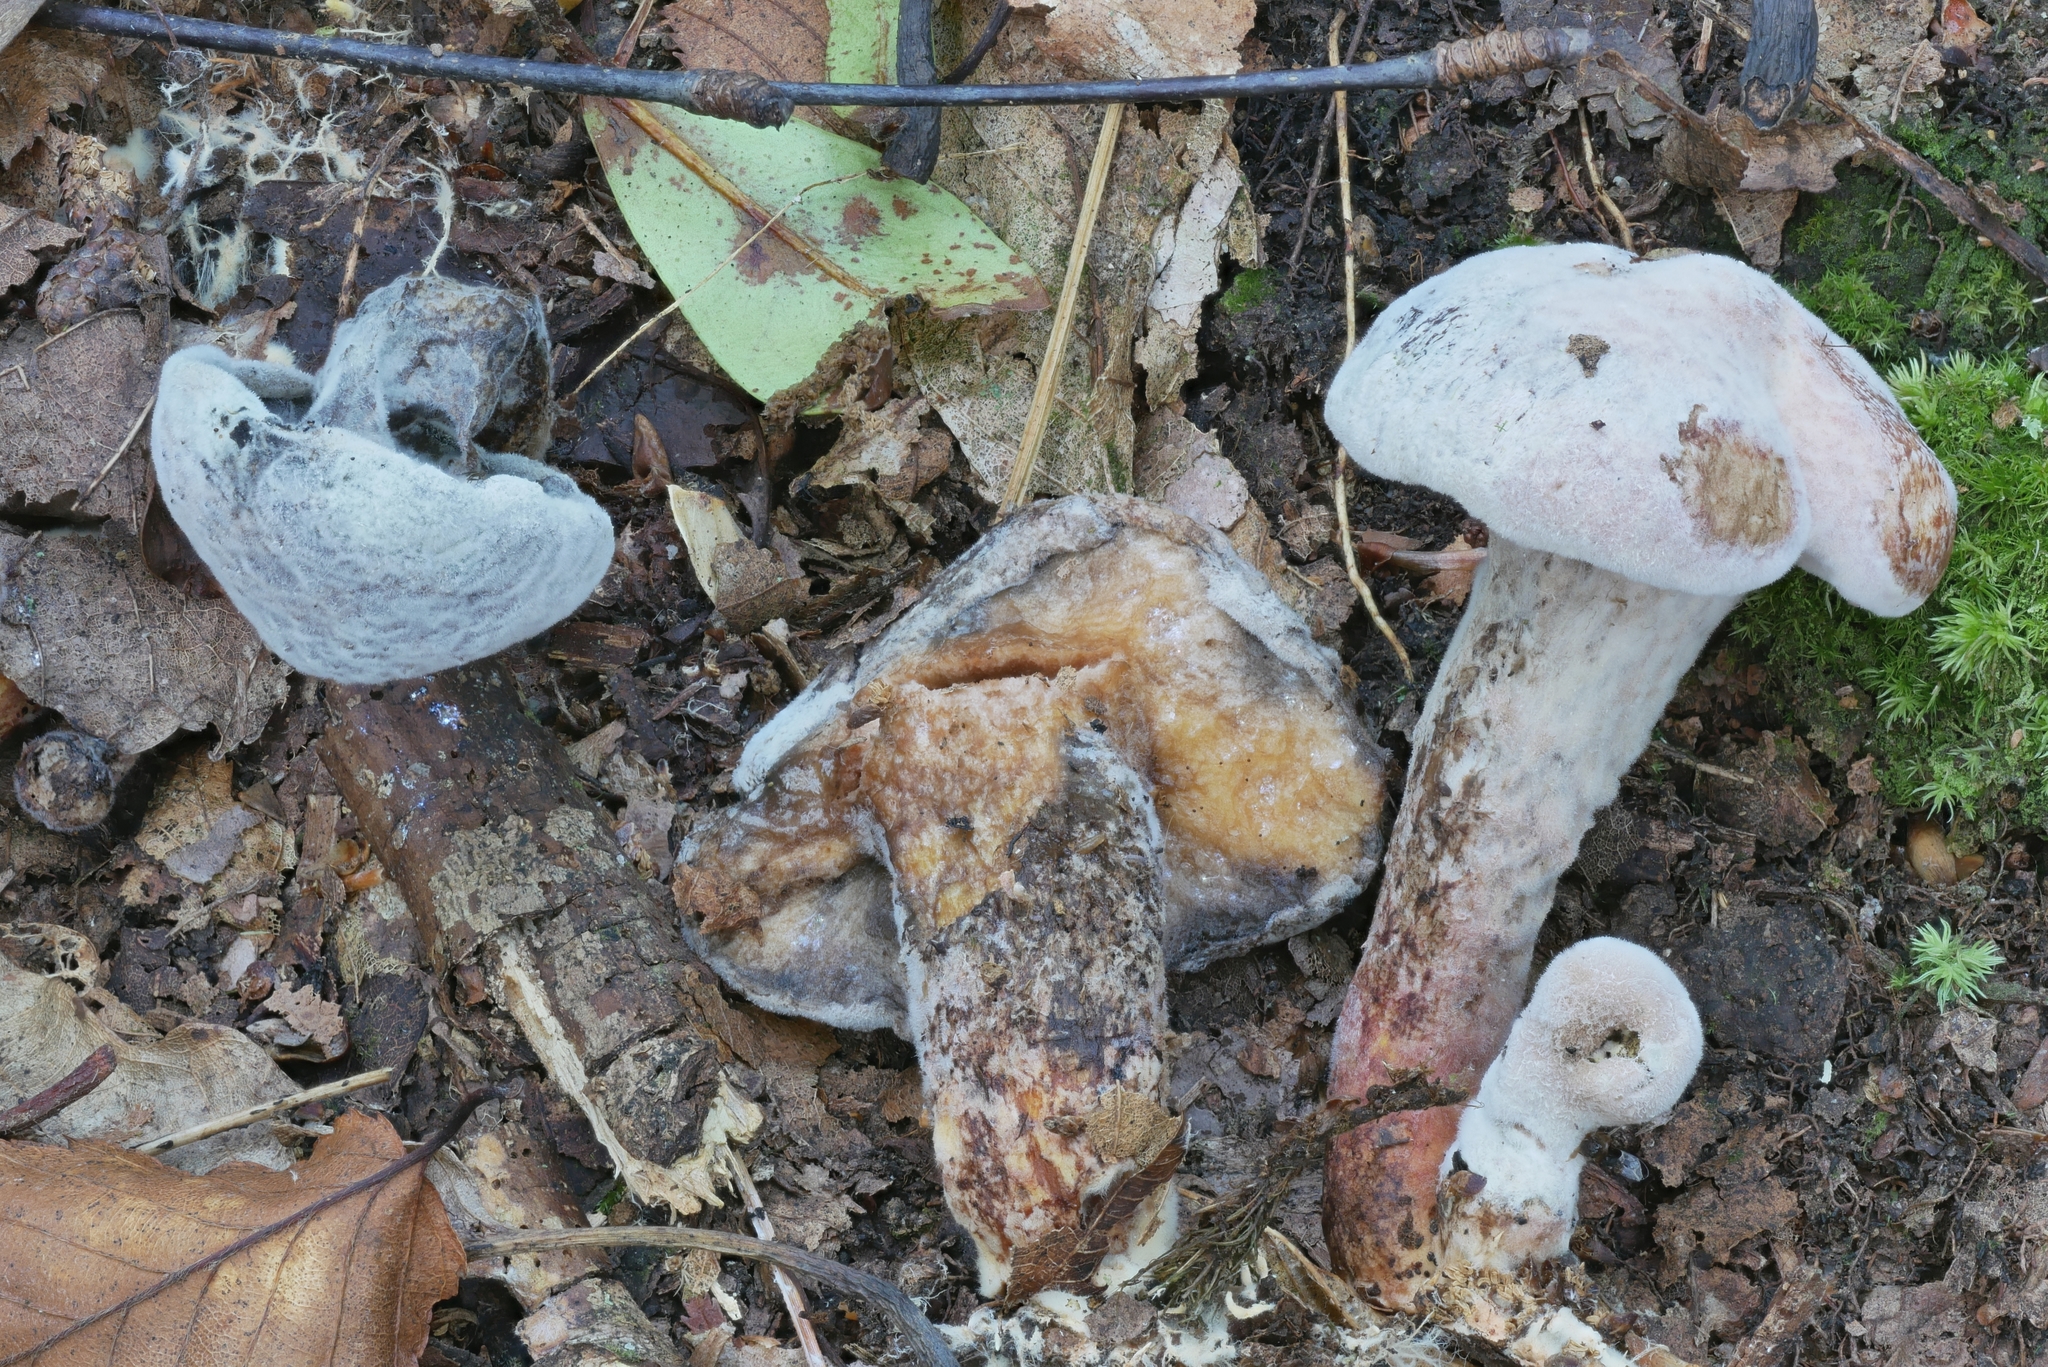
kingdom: Fungi
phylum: Ascomycota
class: Sordariomycetes
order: Hypocreales
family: Hypocreaceae
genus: Hypomyces
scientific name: Hypomyces completus
